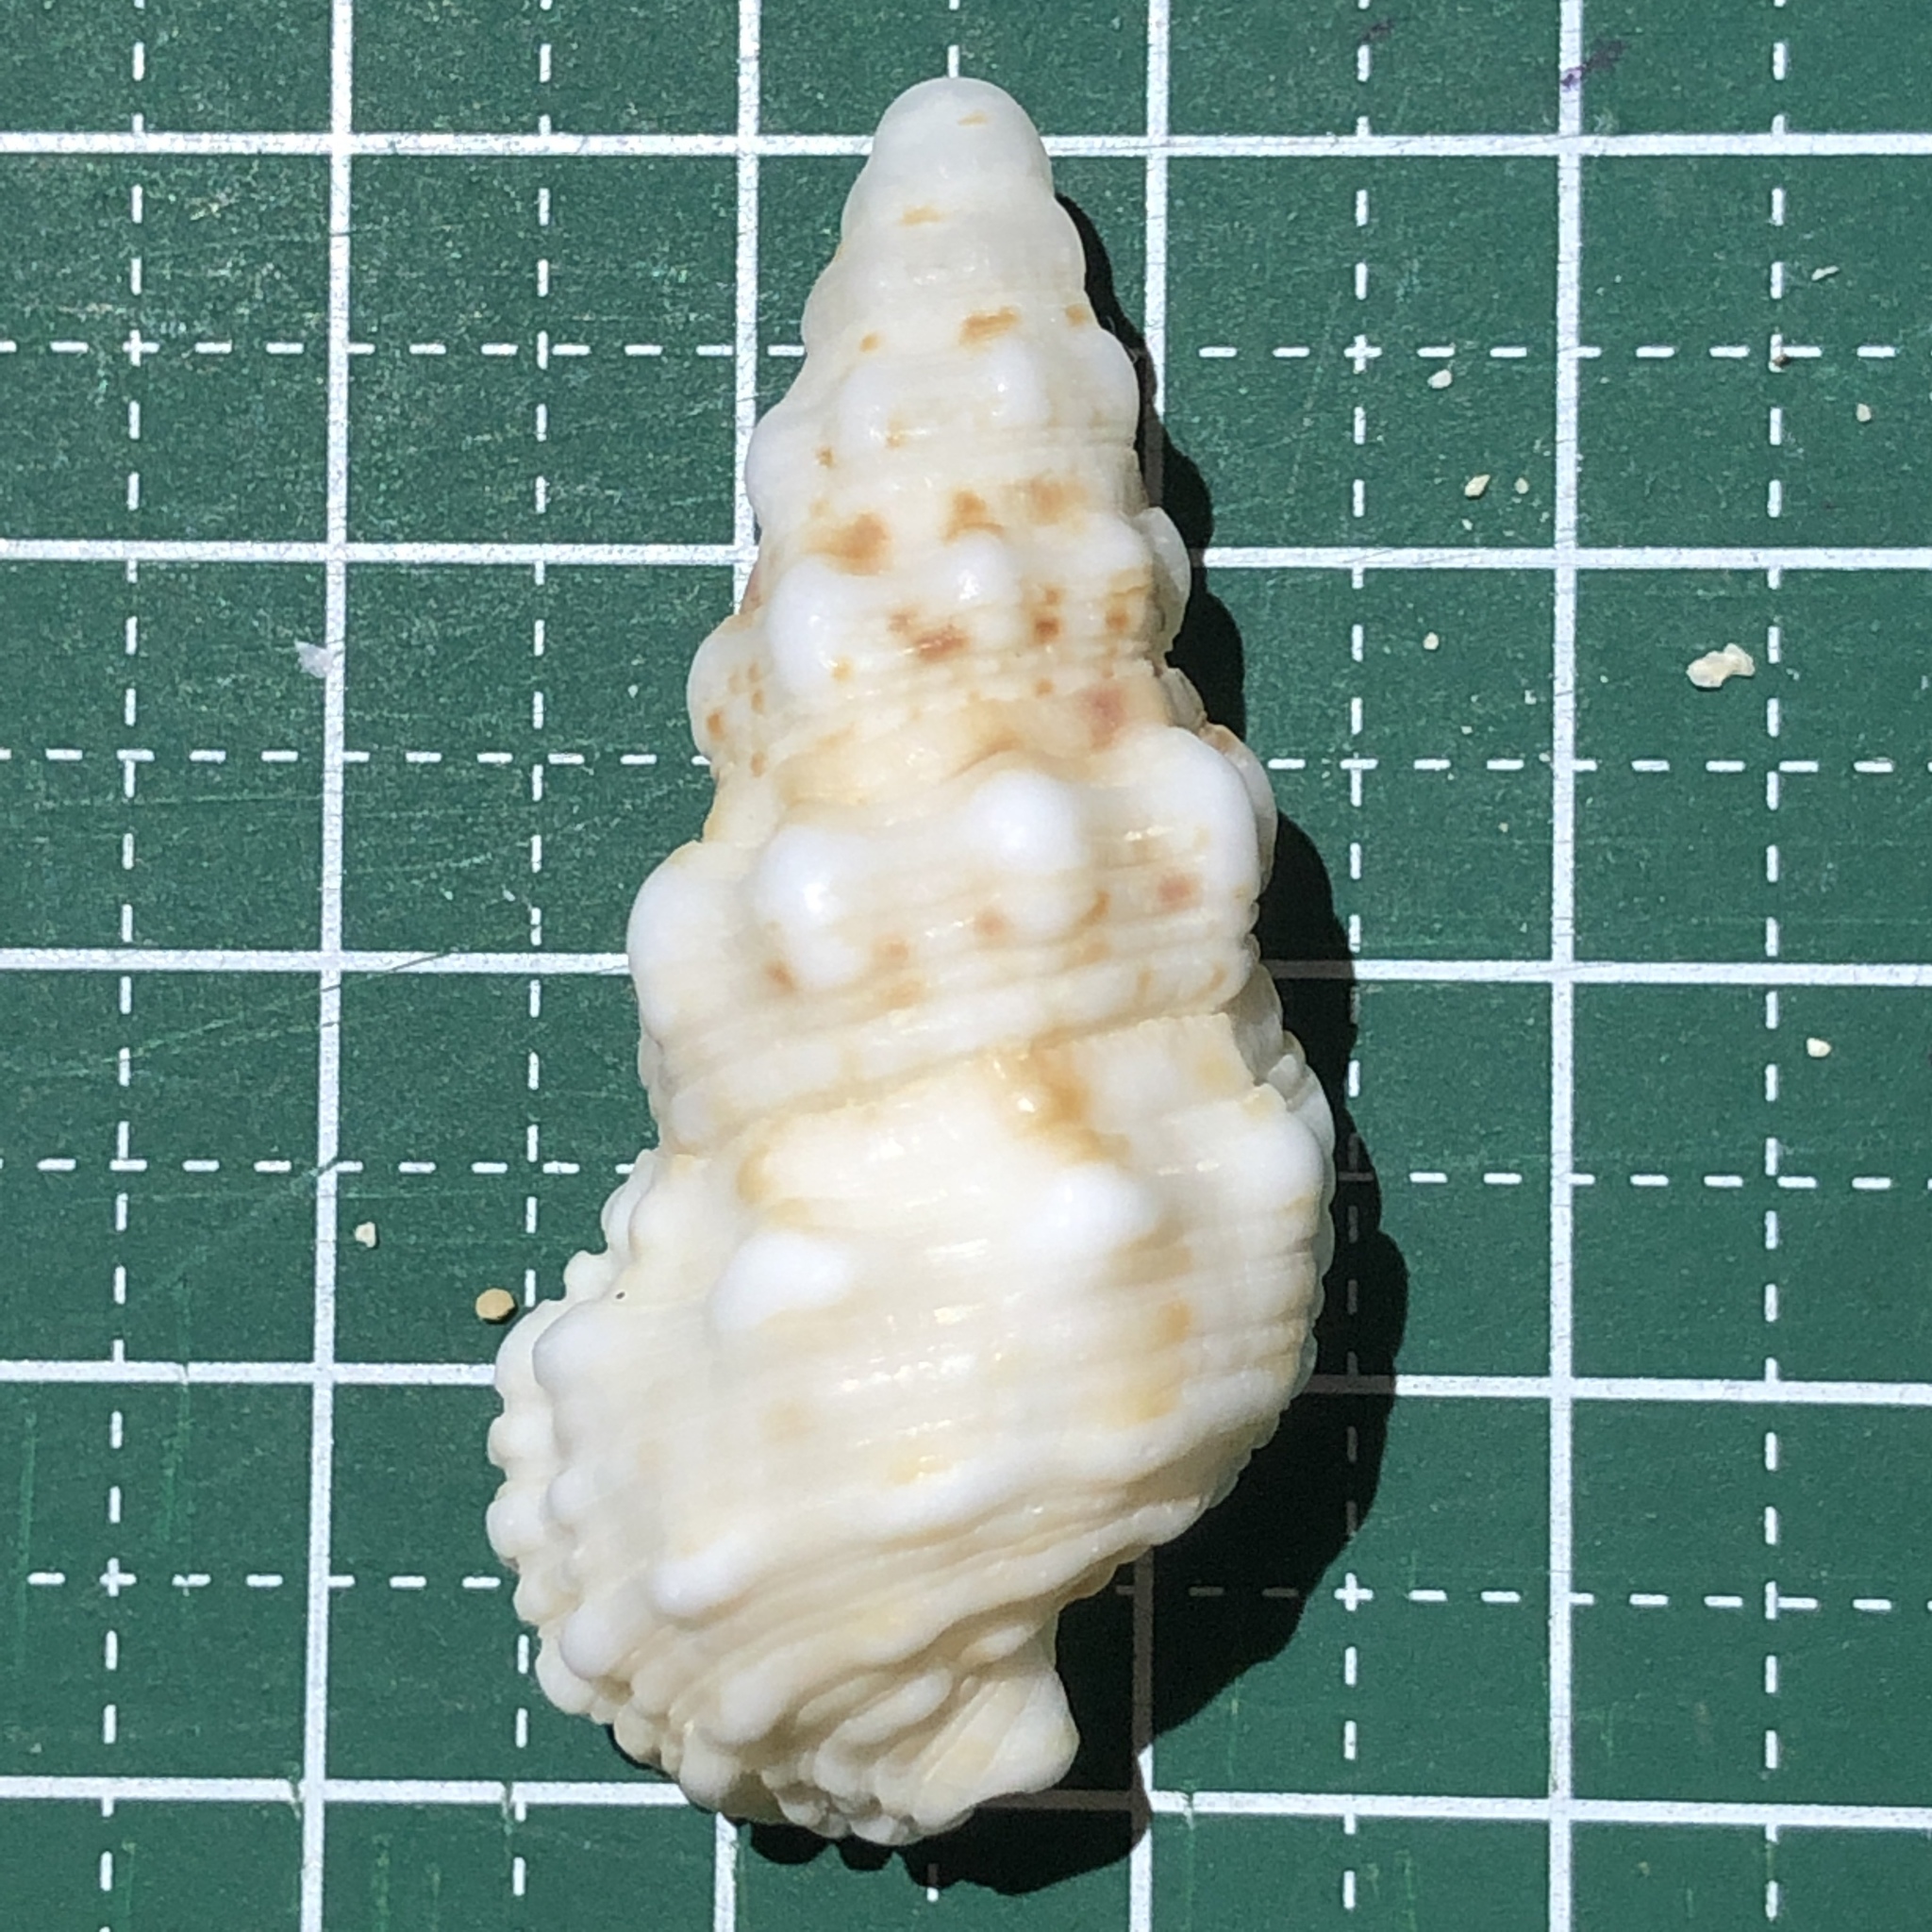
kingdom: Animalia
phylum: Mollusca
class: Gastropoda
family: Cerithiidae
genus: Cerithium
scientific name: Cerithium echinatum
